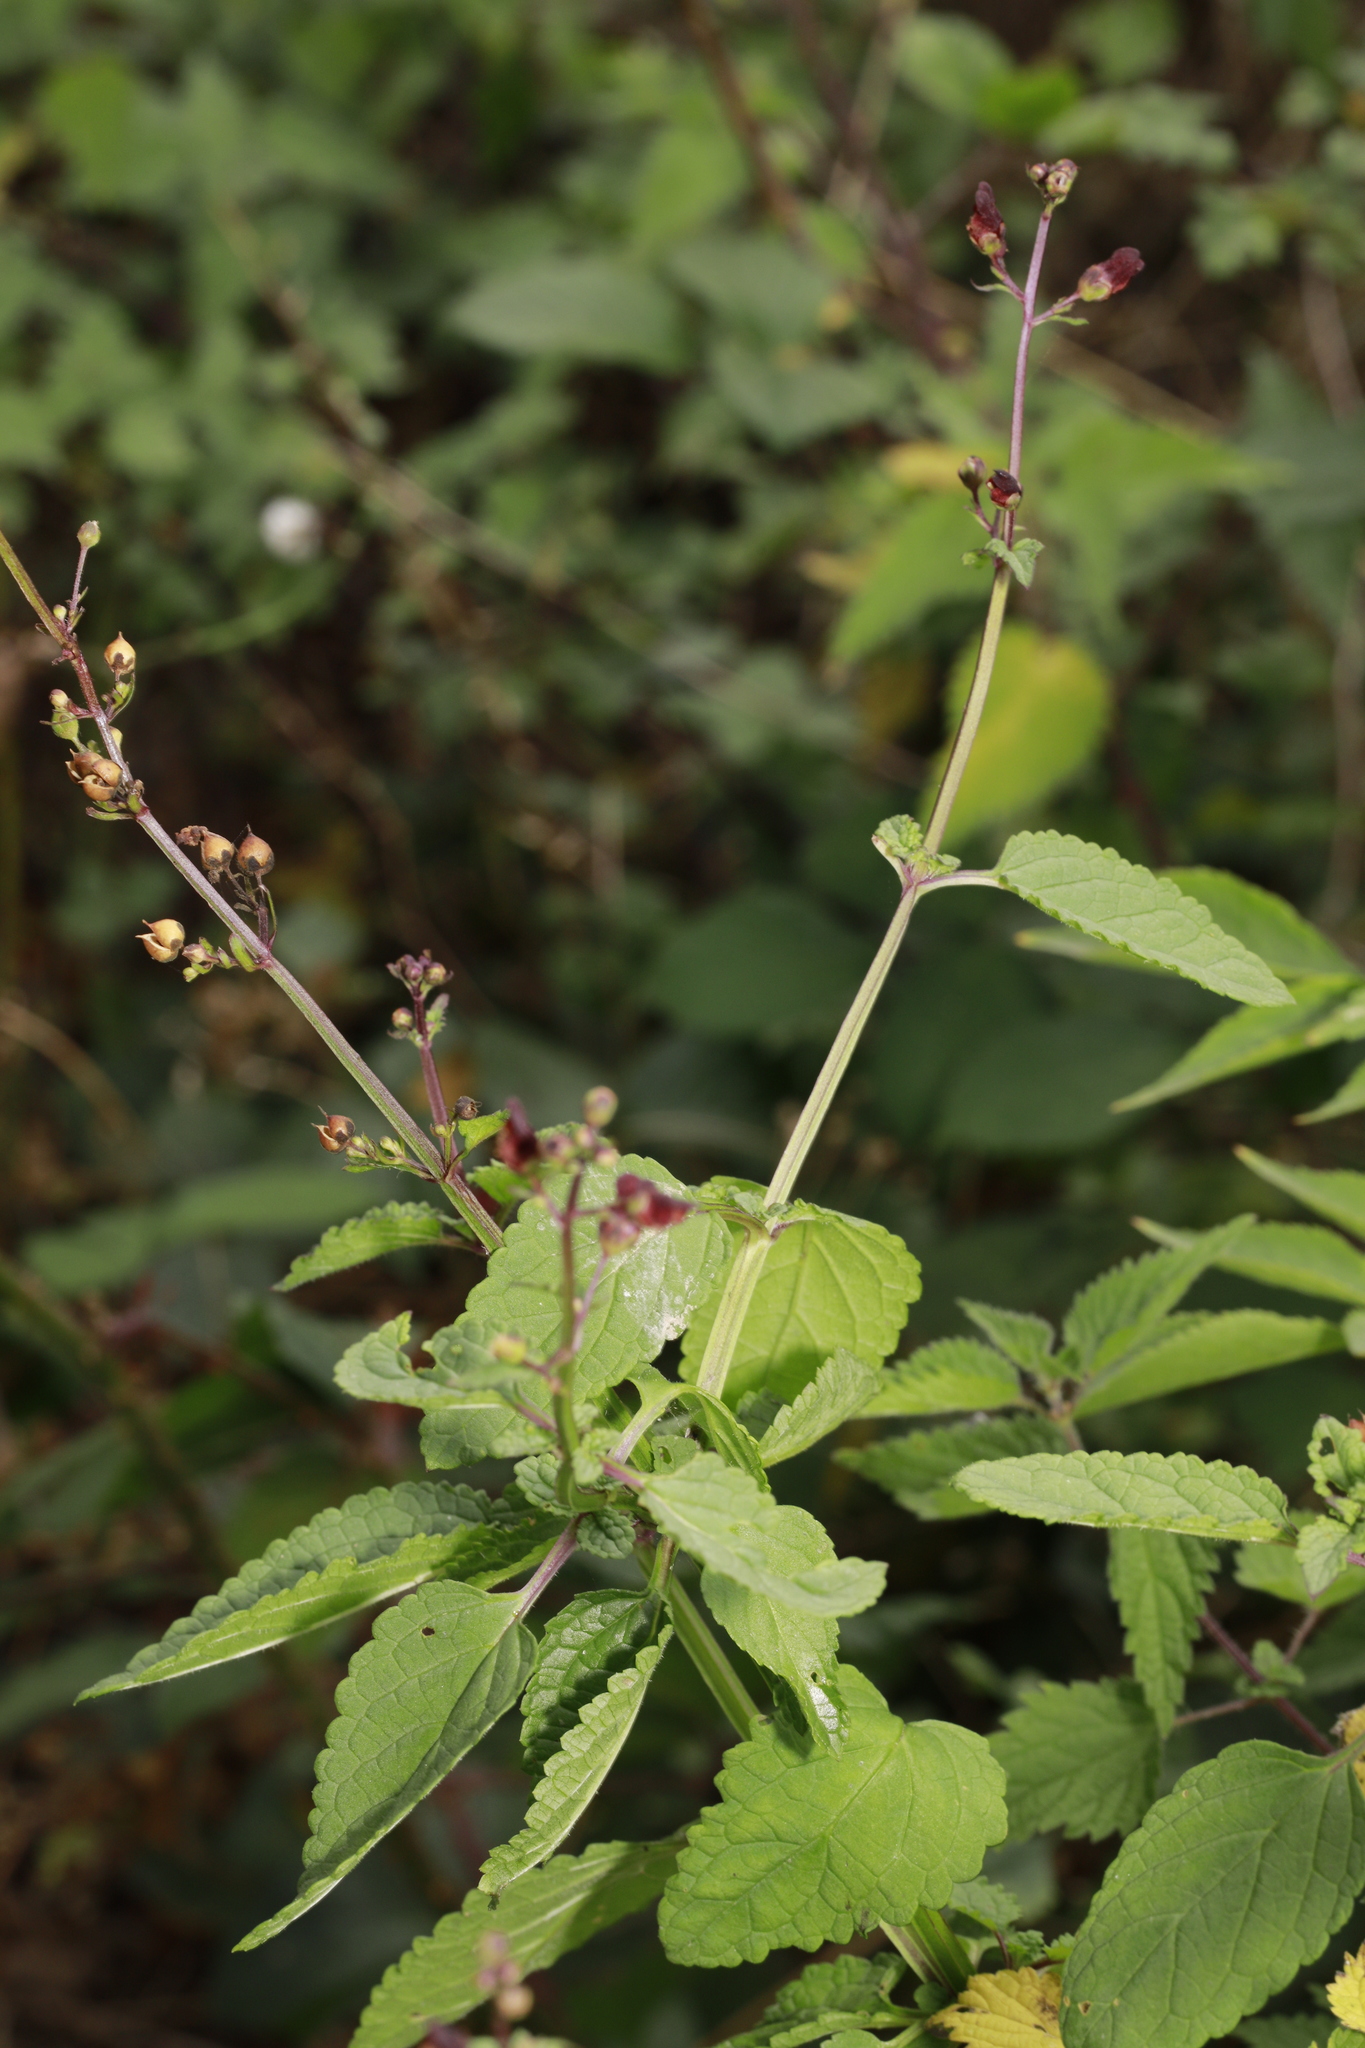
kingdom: Plantae
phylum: Tracheophyta
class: Magnoliopsida
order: Lamiales
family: Scrophulariaceae
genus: Scrophularia
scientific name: Scrophularia nodosa
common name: Common figwort
